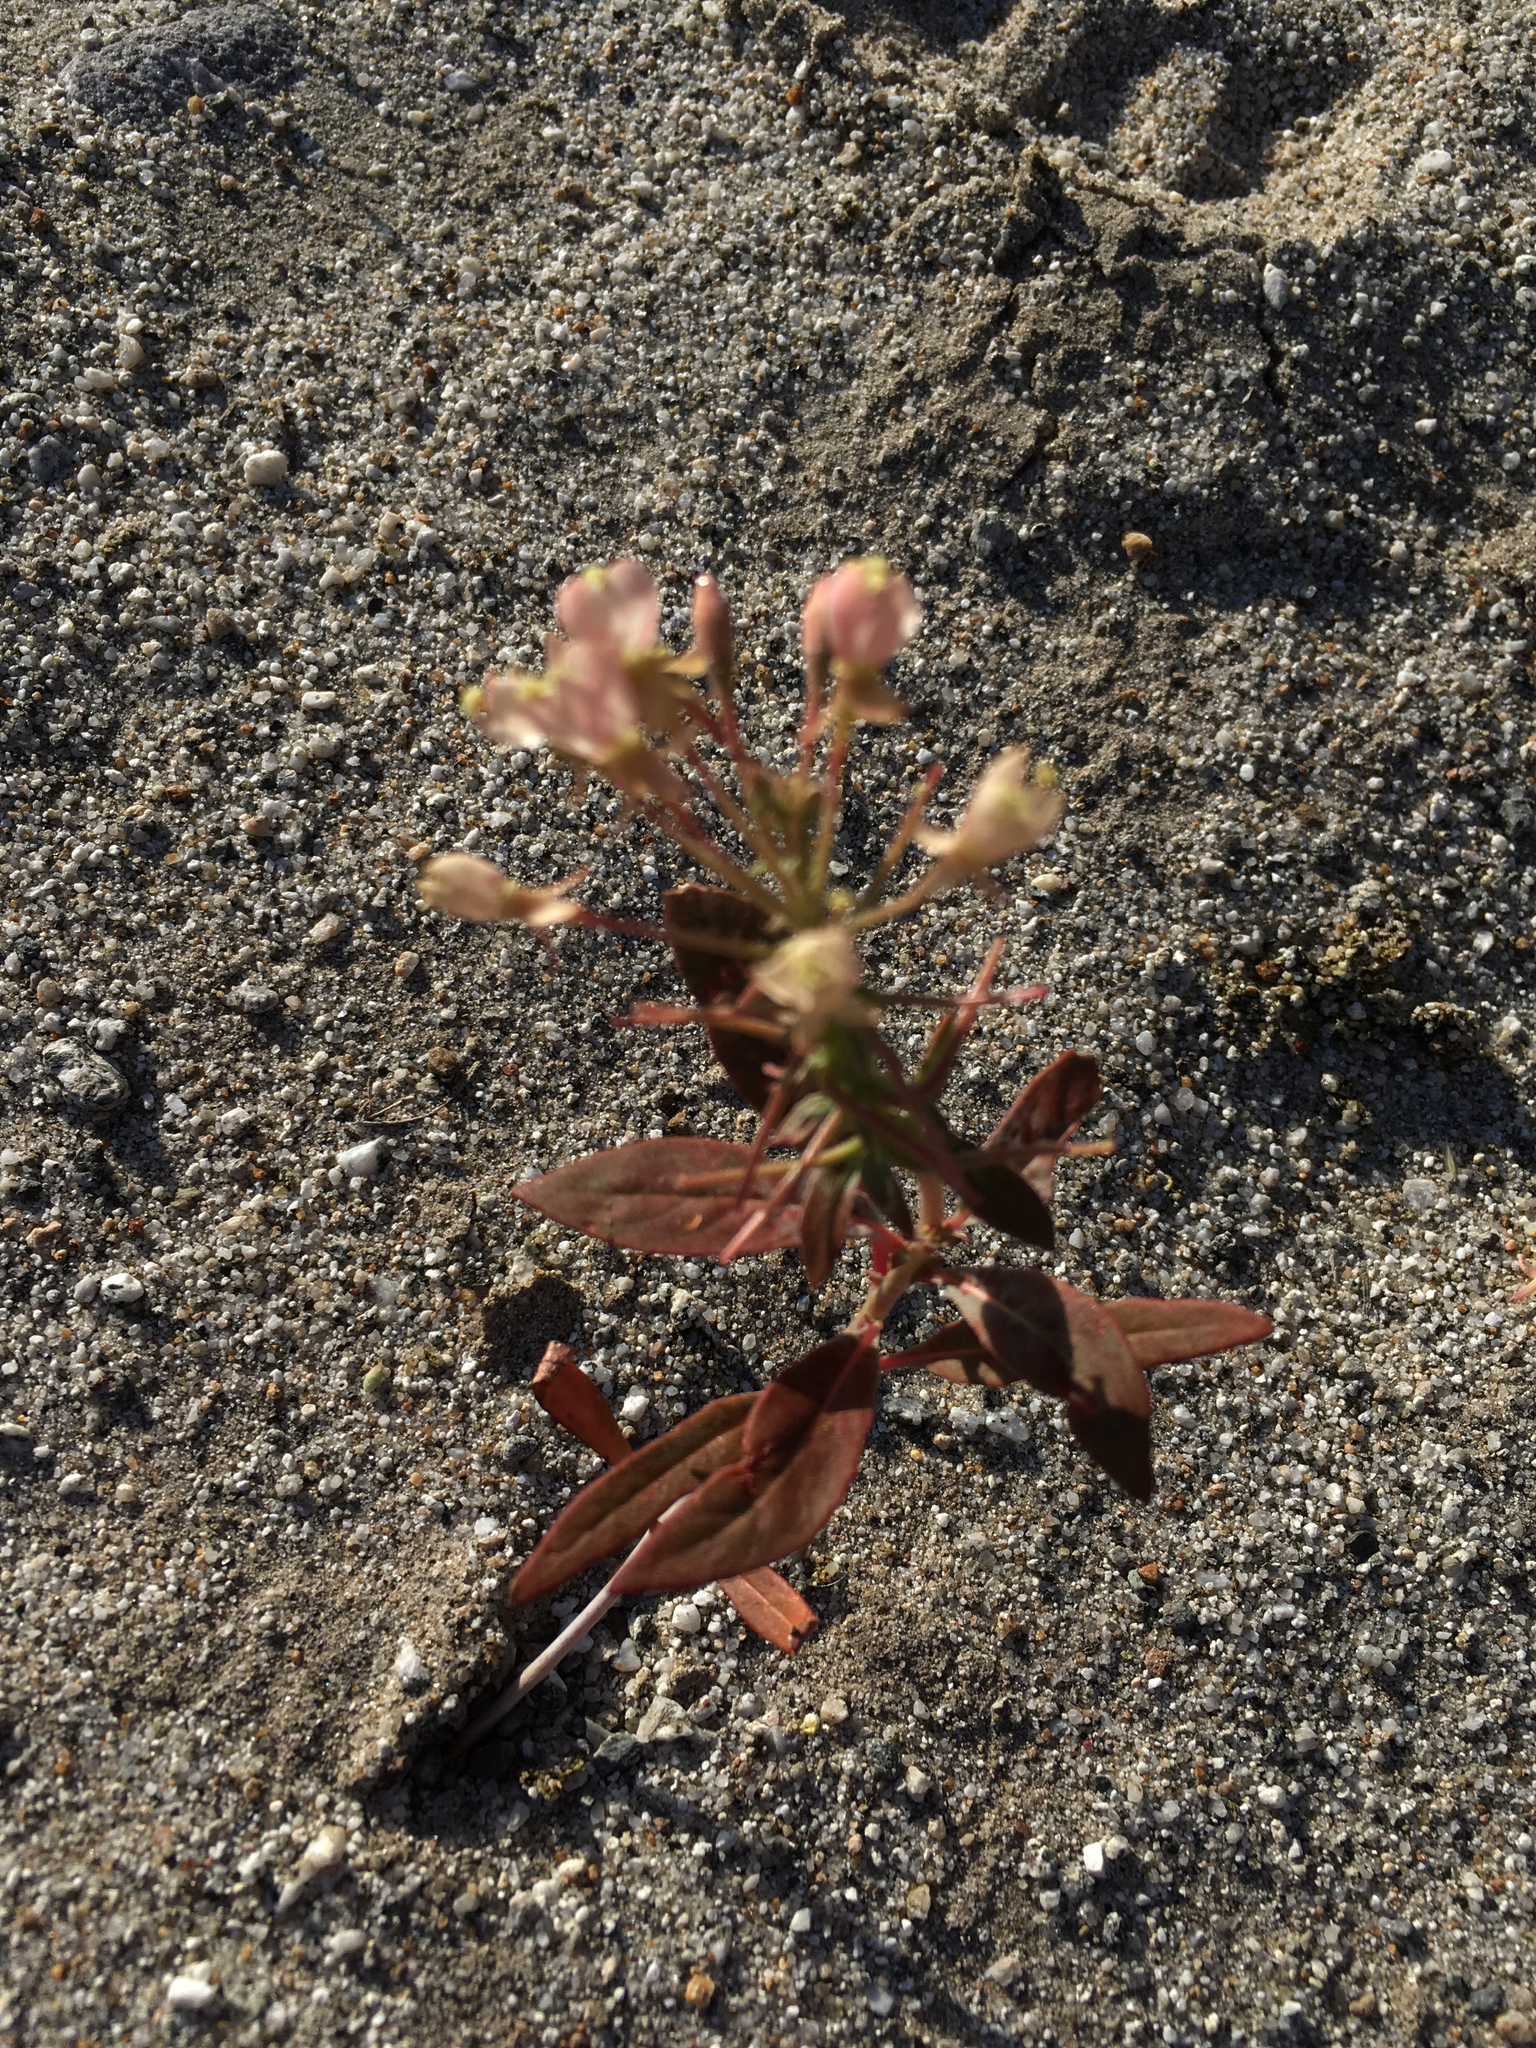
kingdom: Plantae
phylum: Tracheophyta
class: Magnoliopsida
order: Myrtales
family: Onagraceae
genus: Eremothera
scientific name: Eremothera boothii
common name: Booth's evening primrose
